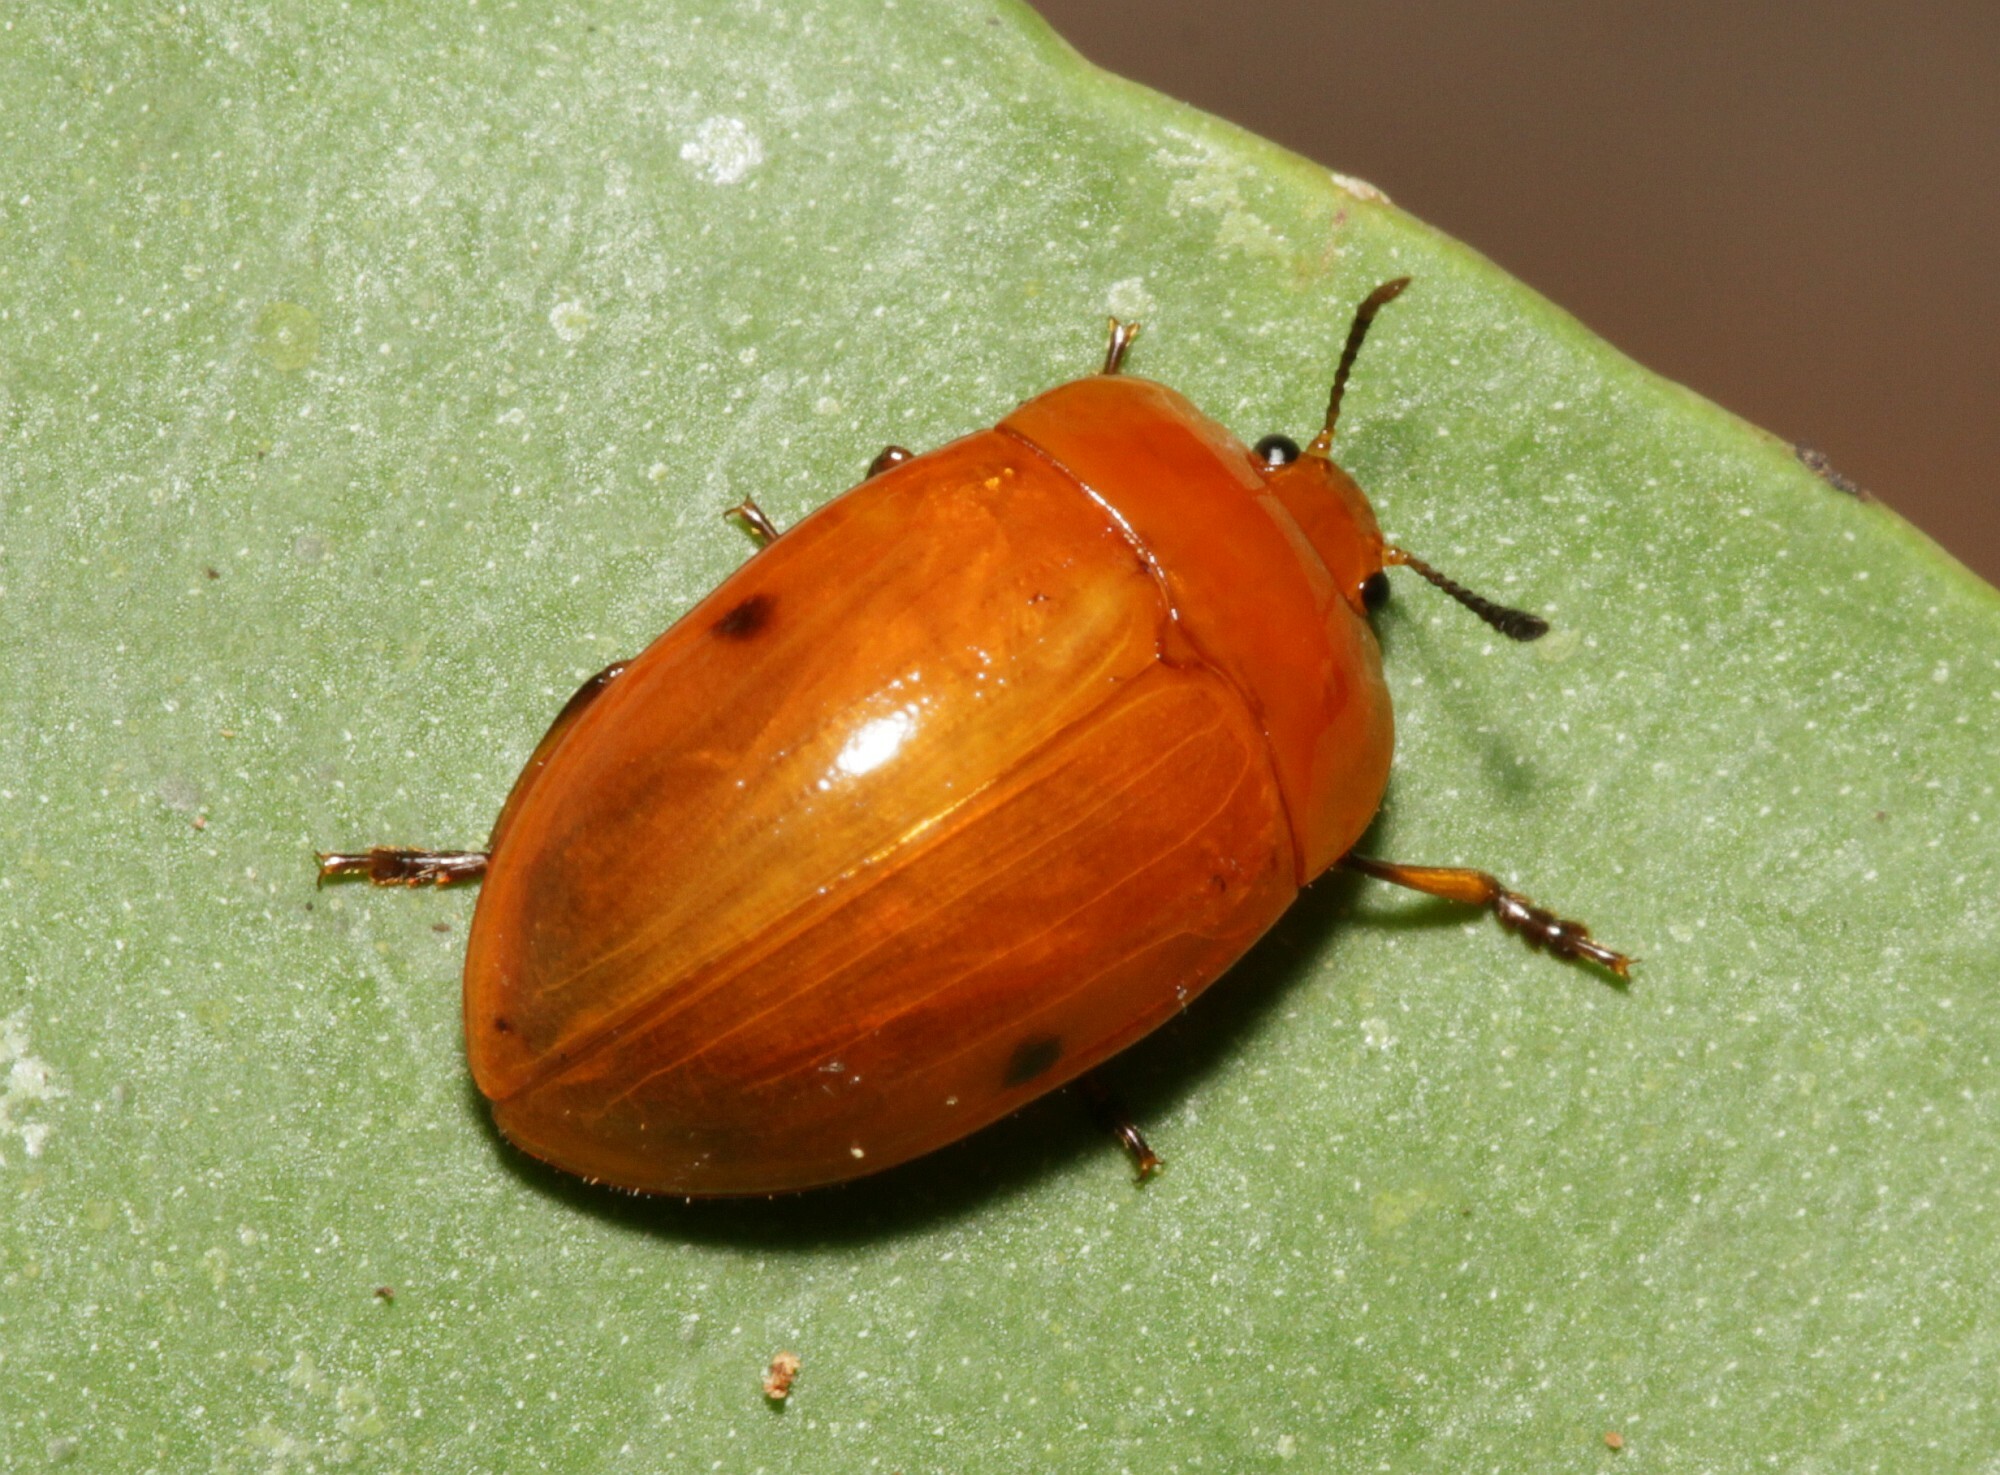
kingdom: Animalia
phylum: Arthropoda
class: Insecta
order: Coleoptera
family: Erotylidae
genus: Iphiclus
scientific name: Iphiclus
